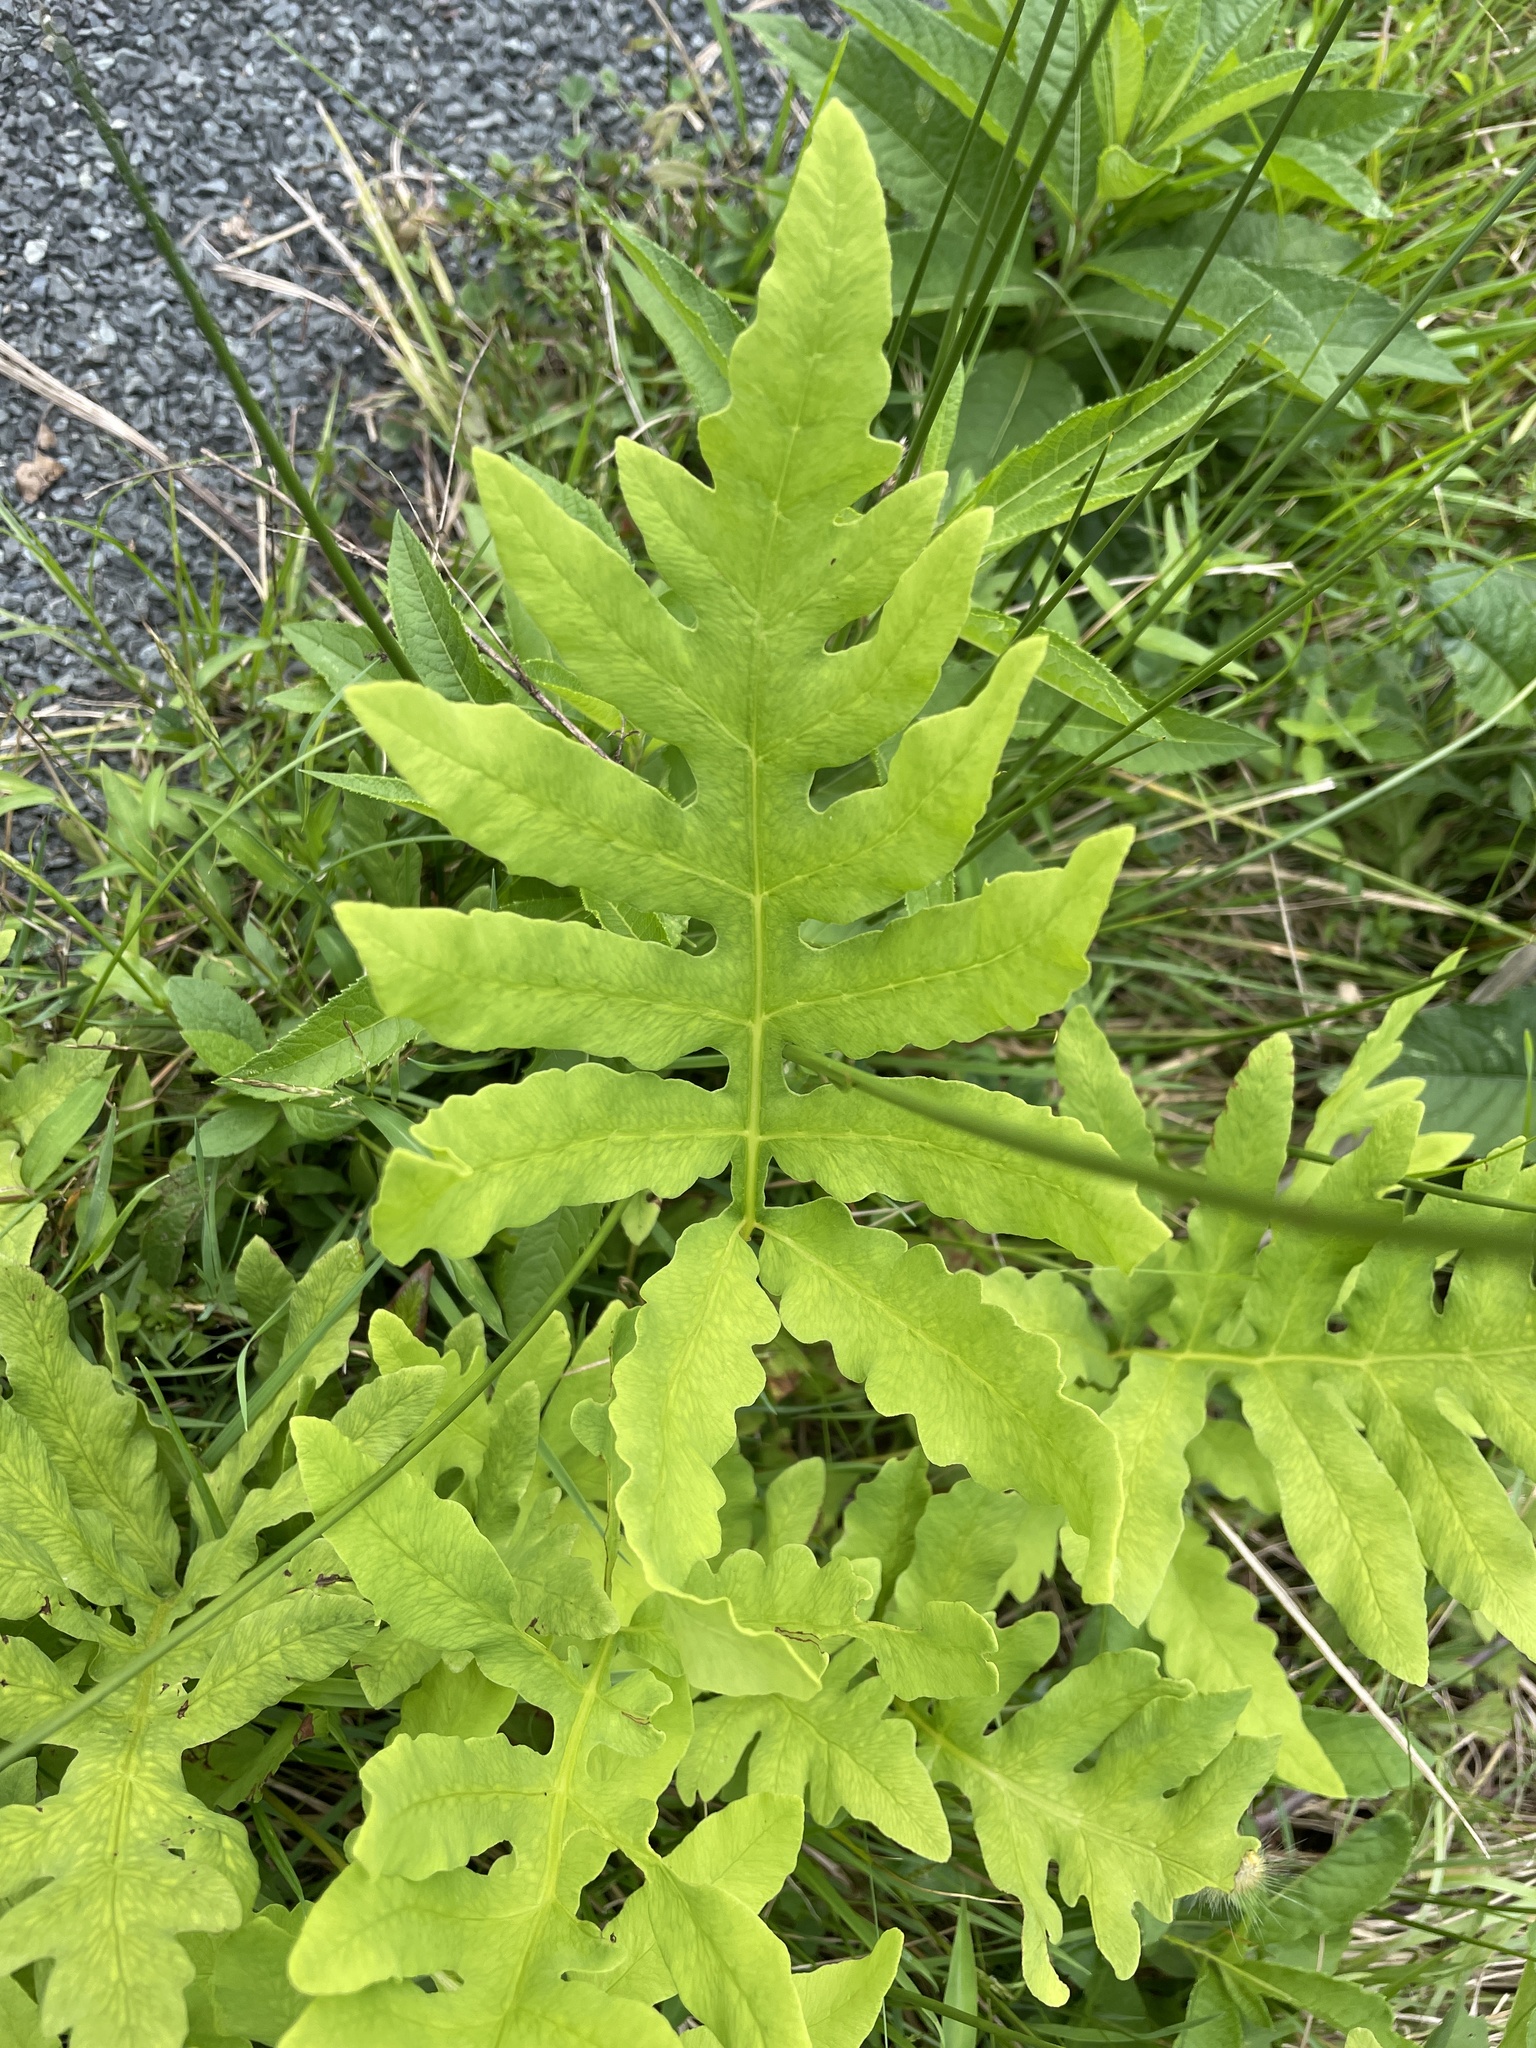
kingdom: Plantae
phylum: Tracheophyta
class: Polypodiopsida
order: Polypodiales
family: Onocleaceae
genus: Onoclea
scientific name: Onoclea sensibilis
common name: Sensitive fern
